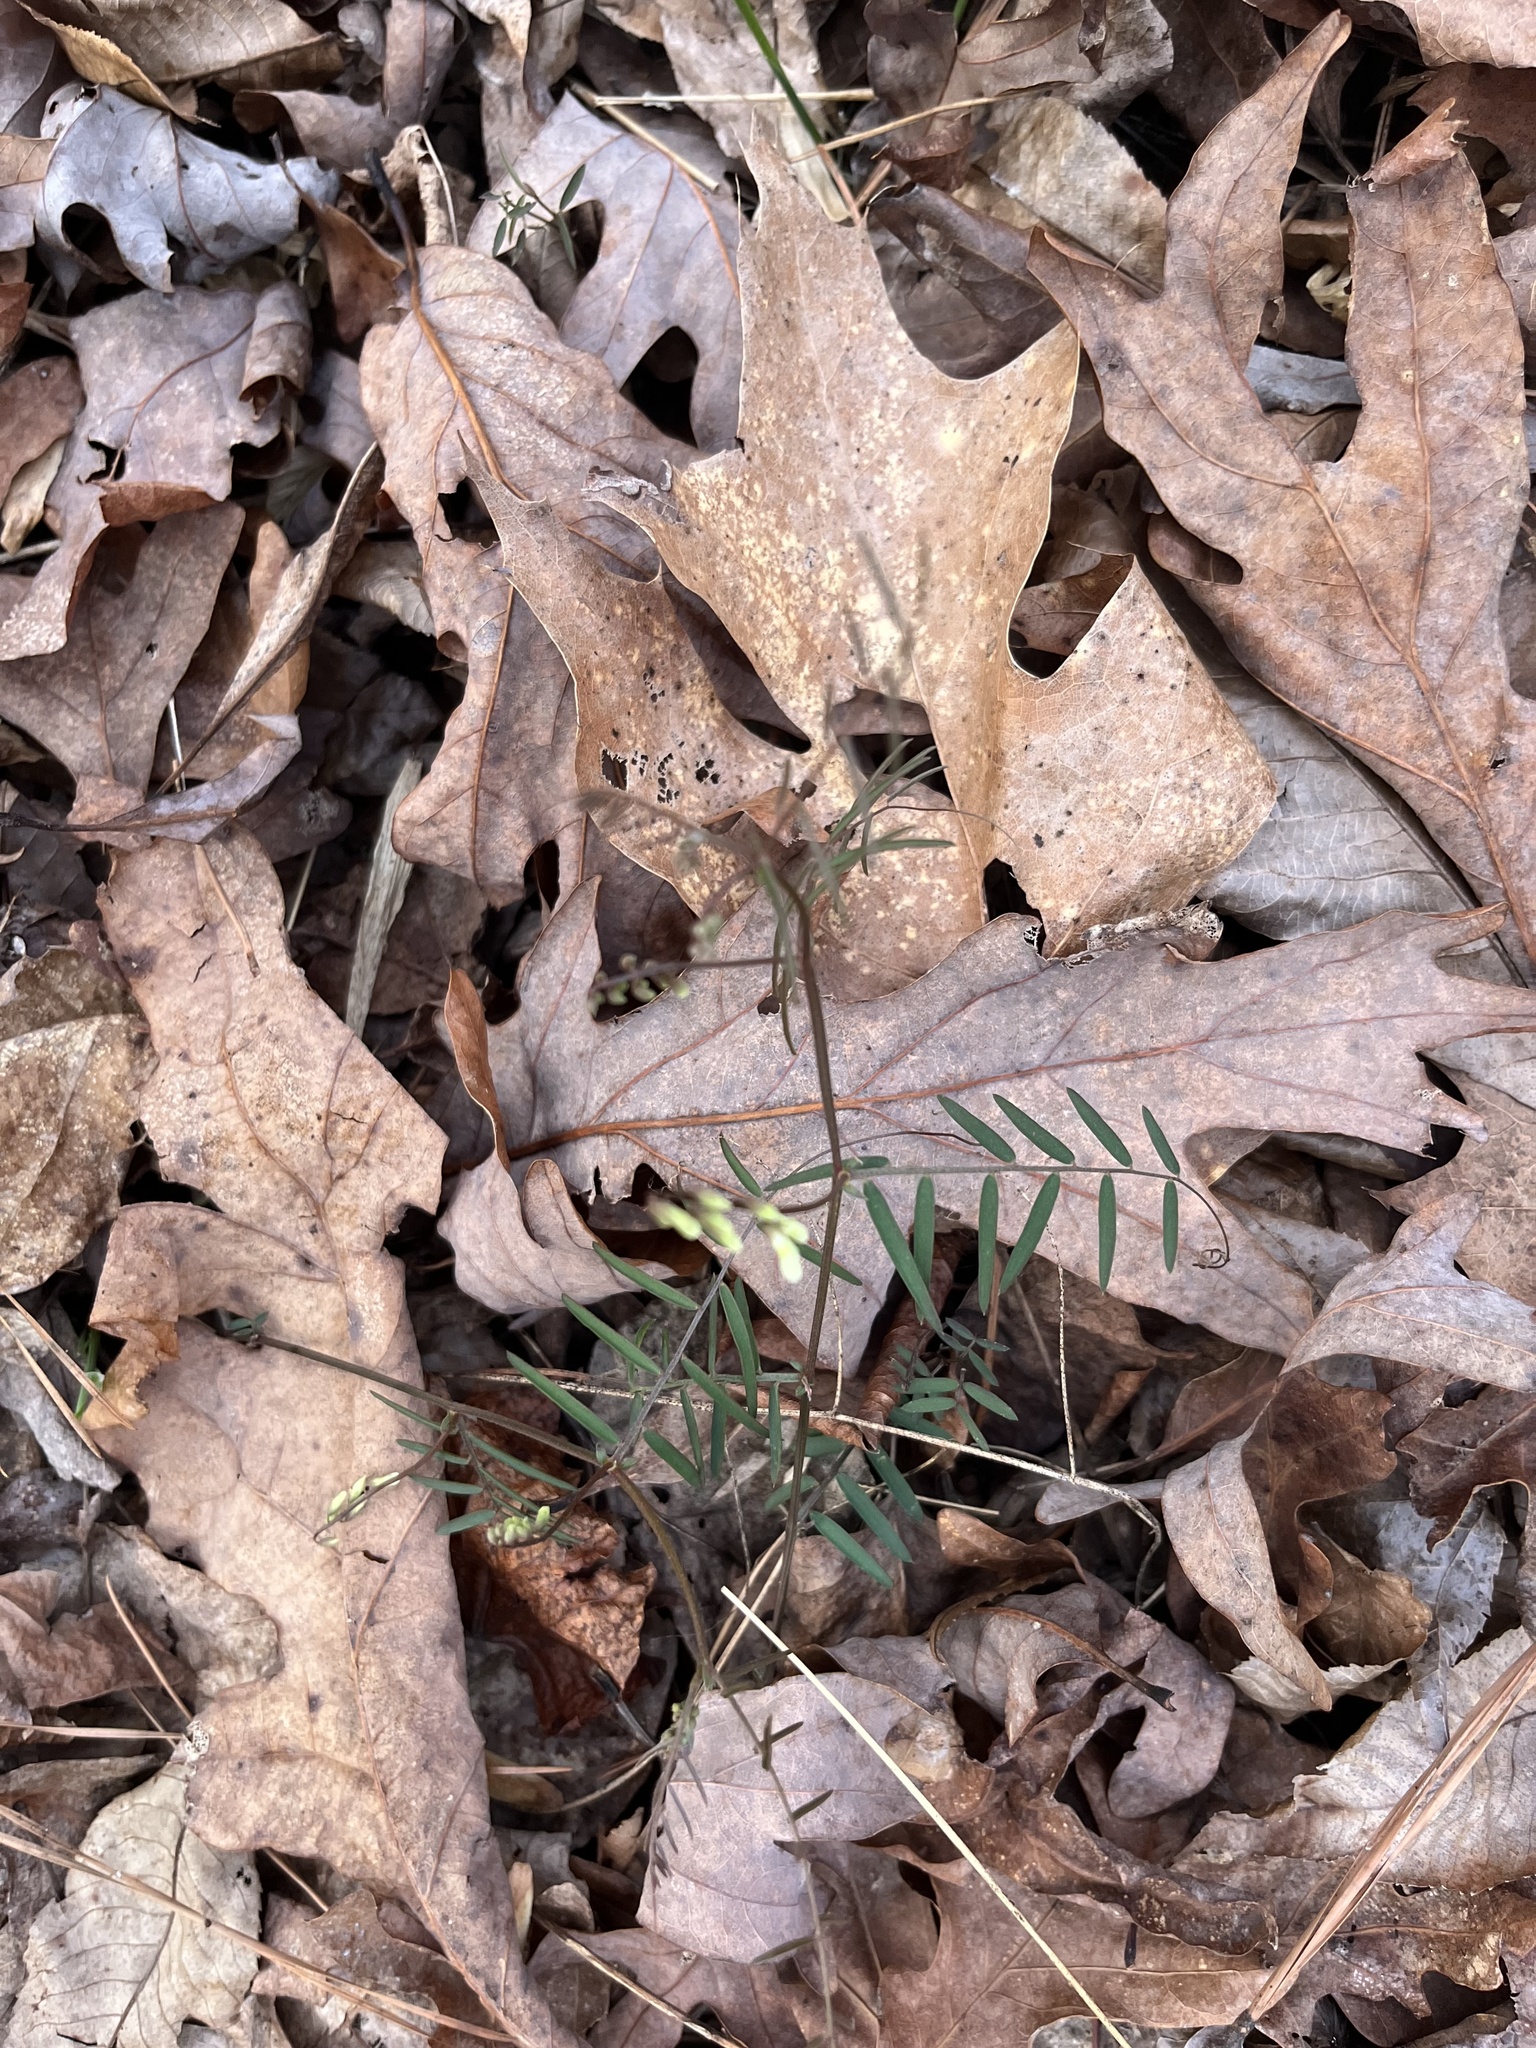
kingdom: Plantae
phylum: Tracheophyta
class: Magnoliopsida
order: Fabales
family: Fabaceae
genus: Vicia
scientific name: Vicia caroliniana
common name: Carolina vetch
